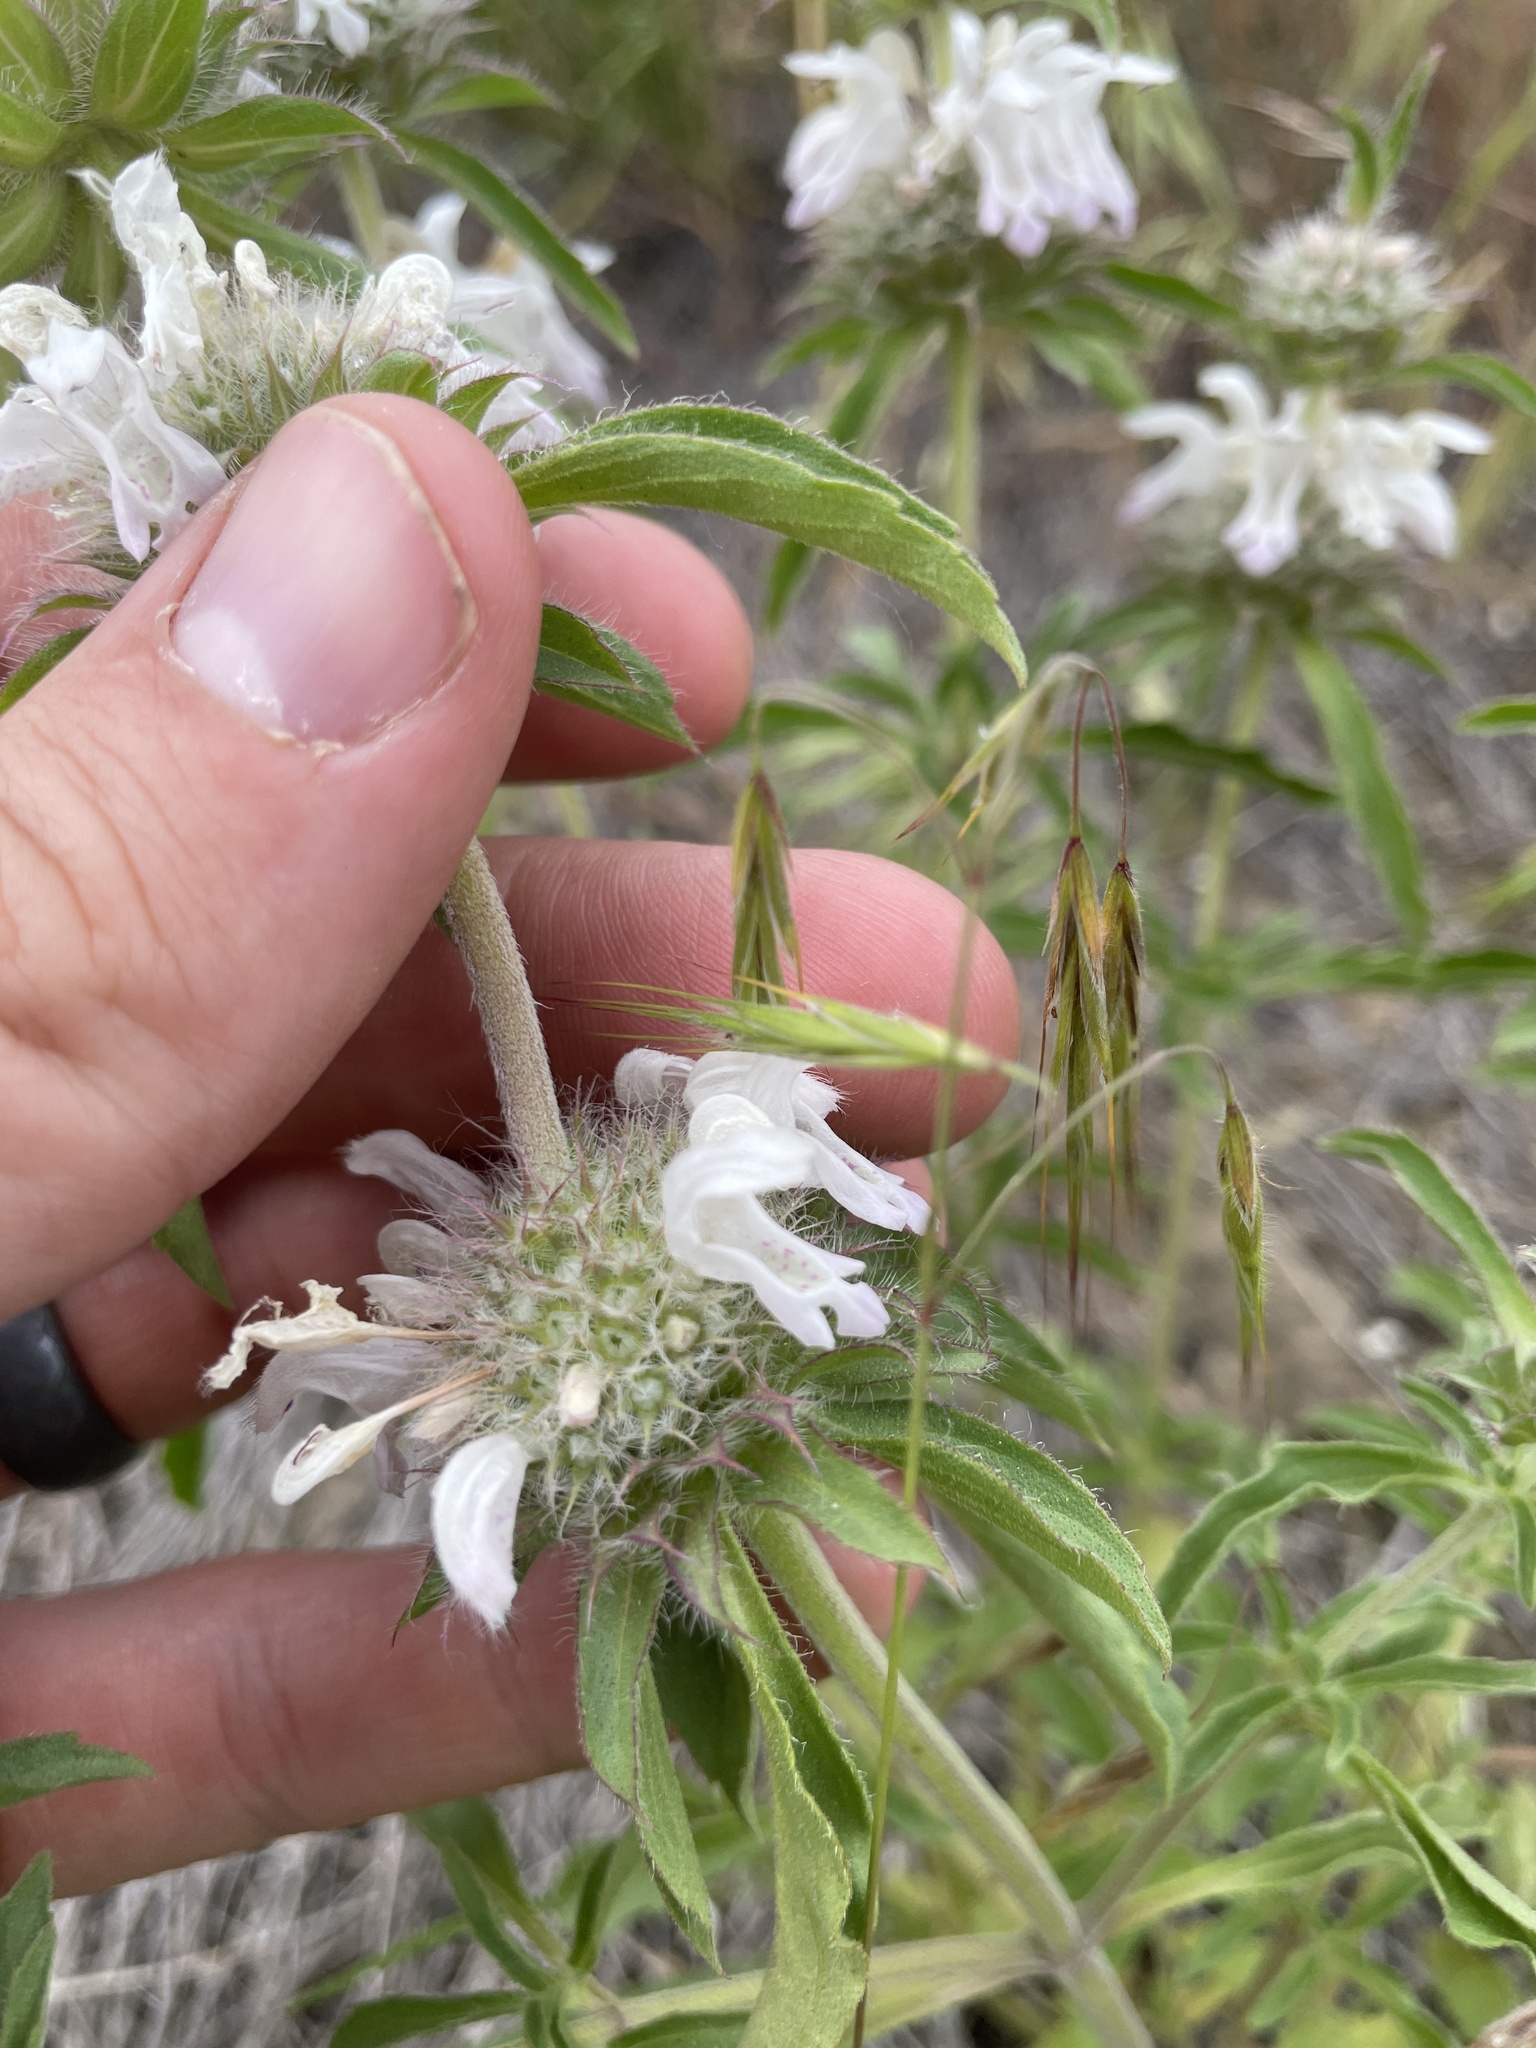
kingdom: Plantae
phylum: Tracheophyta
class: Magnoliopsida
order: Lamiales
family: Lamiaceae
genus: Monarda
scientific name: Monarda pectinata
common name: Plains beebalm
